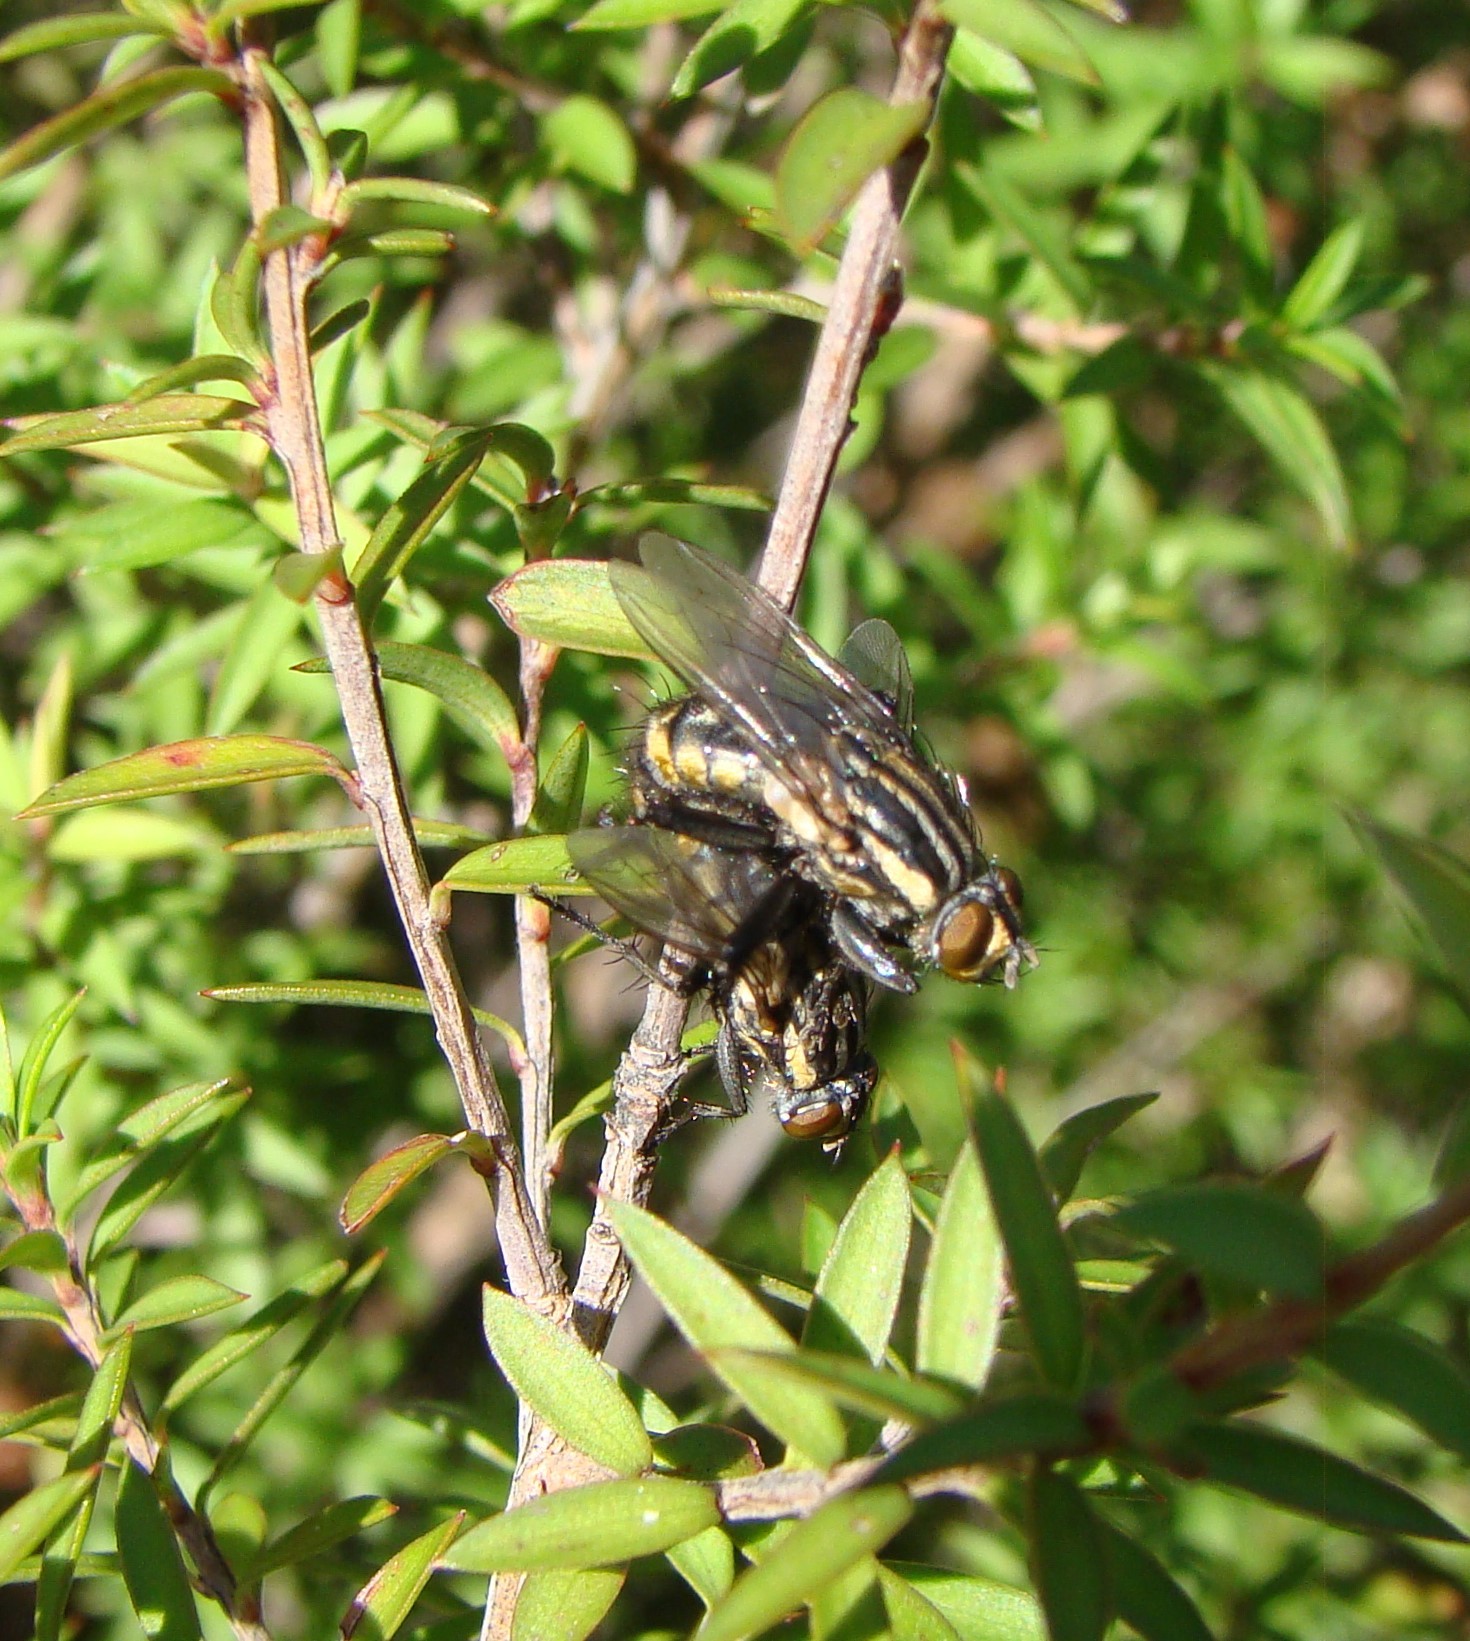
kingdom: Animalia
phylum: Arthropoda
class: Insecta
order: Diptera
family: Sarcophagidae
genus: Oxysarcodexia
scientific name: Oxysarcodexia varia
